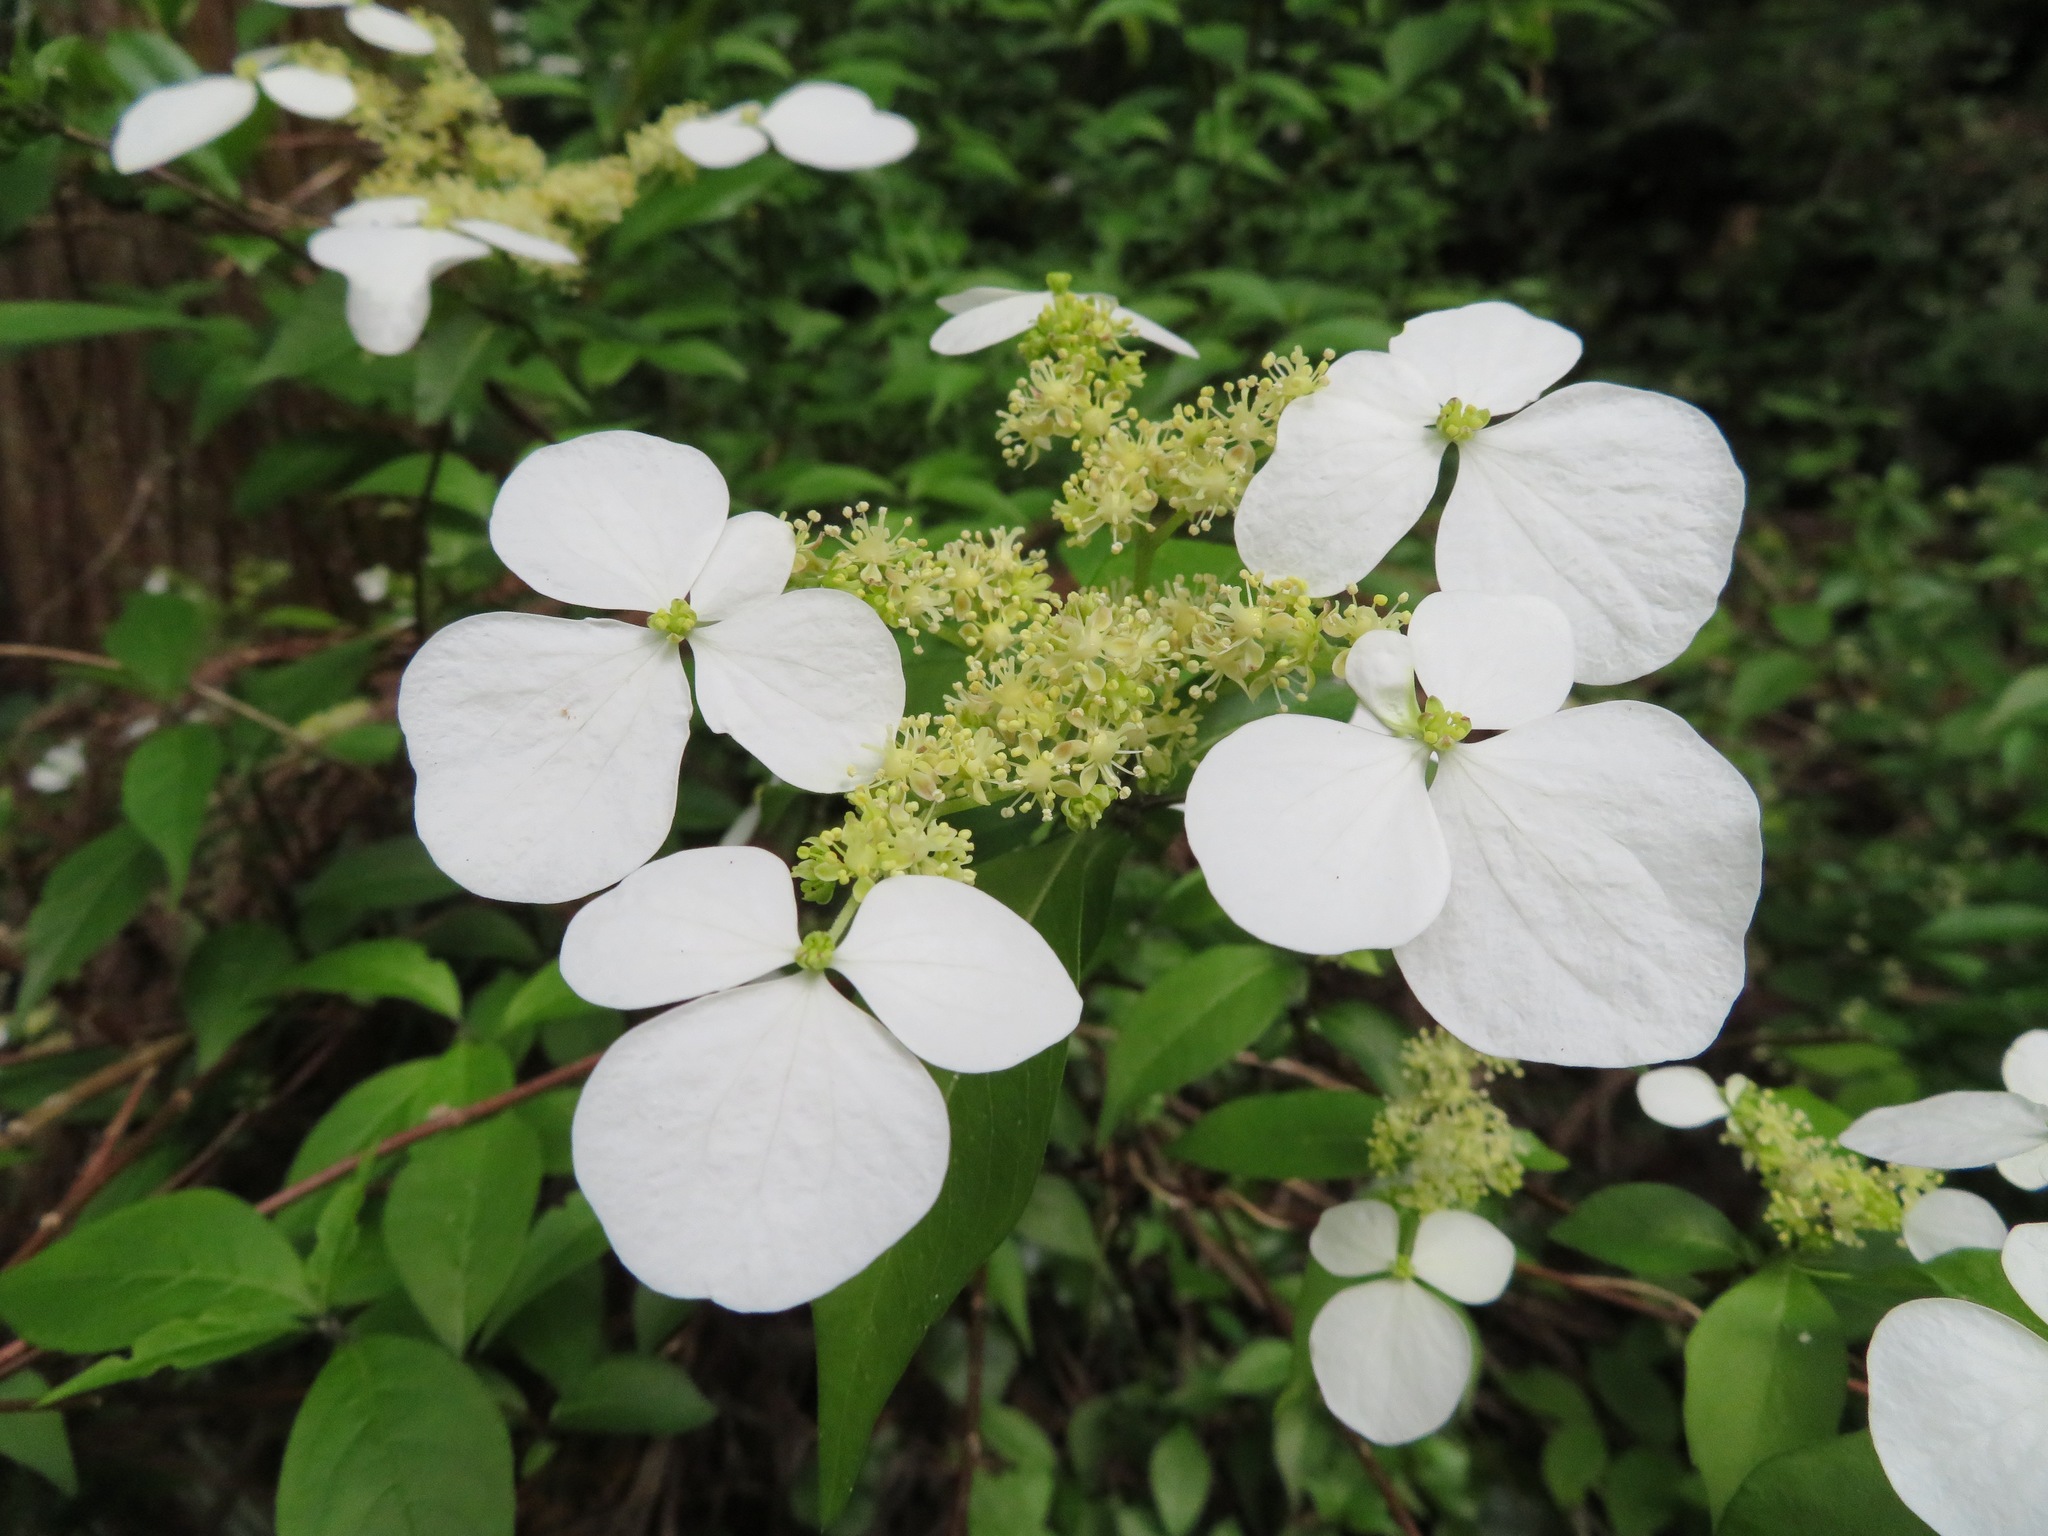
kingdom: Plantae
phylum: Tracheophyta
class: Magnoliopsida
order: Cornales
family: Hydrangeaceae
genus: Hydrangea
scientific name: Hydrangea scandens
